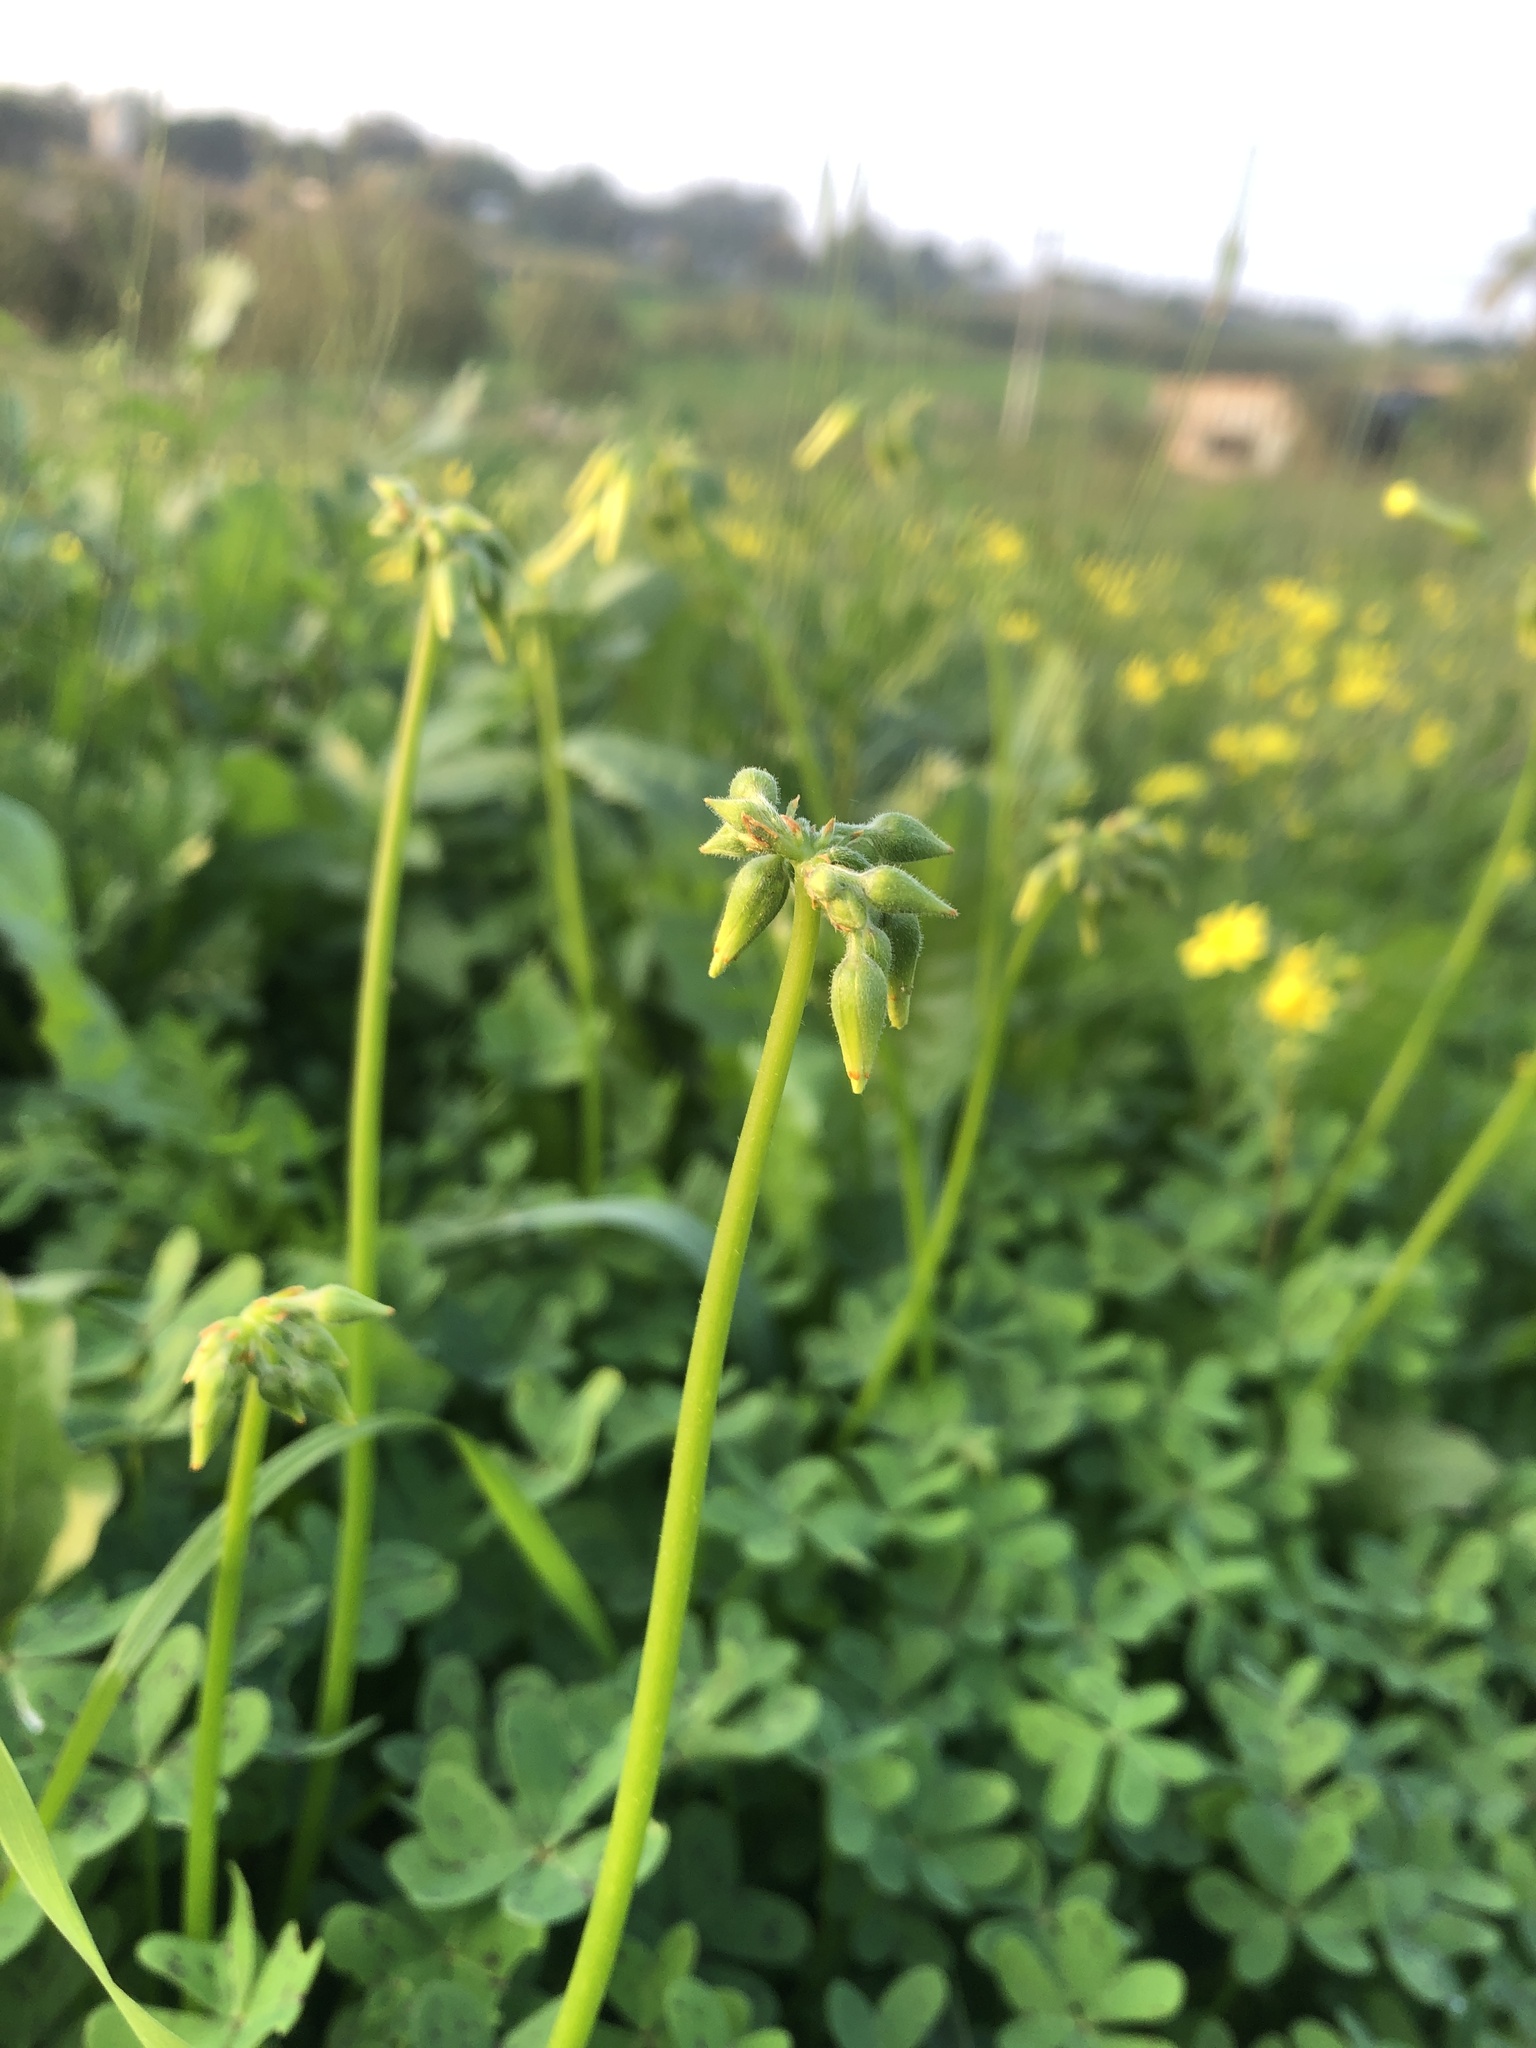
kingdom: Plantae
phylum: Tracheophyta
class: Magnoliopsida
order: Oxalidales
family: Oxalidaceae
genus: Oxalis
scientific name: Oxalis pes-caprae
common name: Bermuda-buttercup
